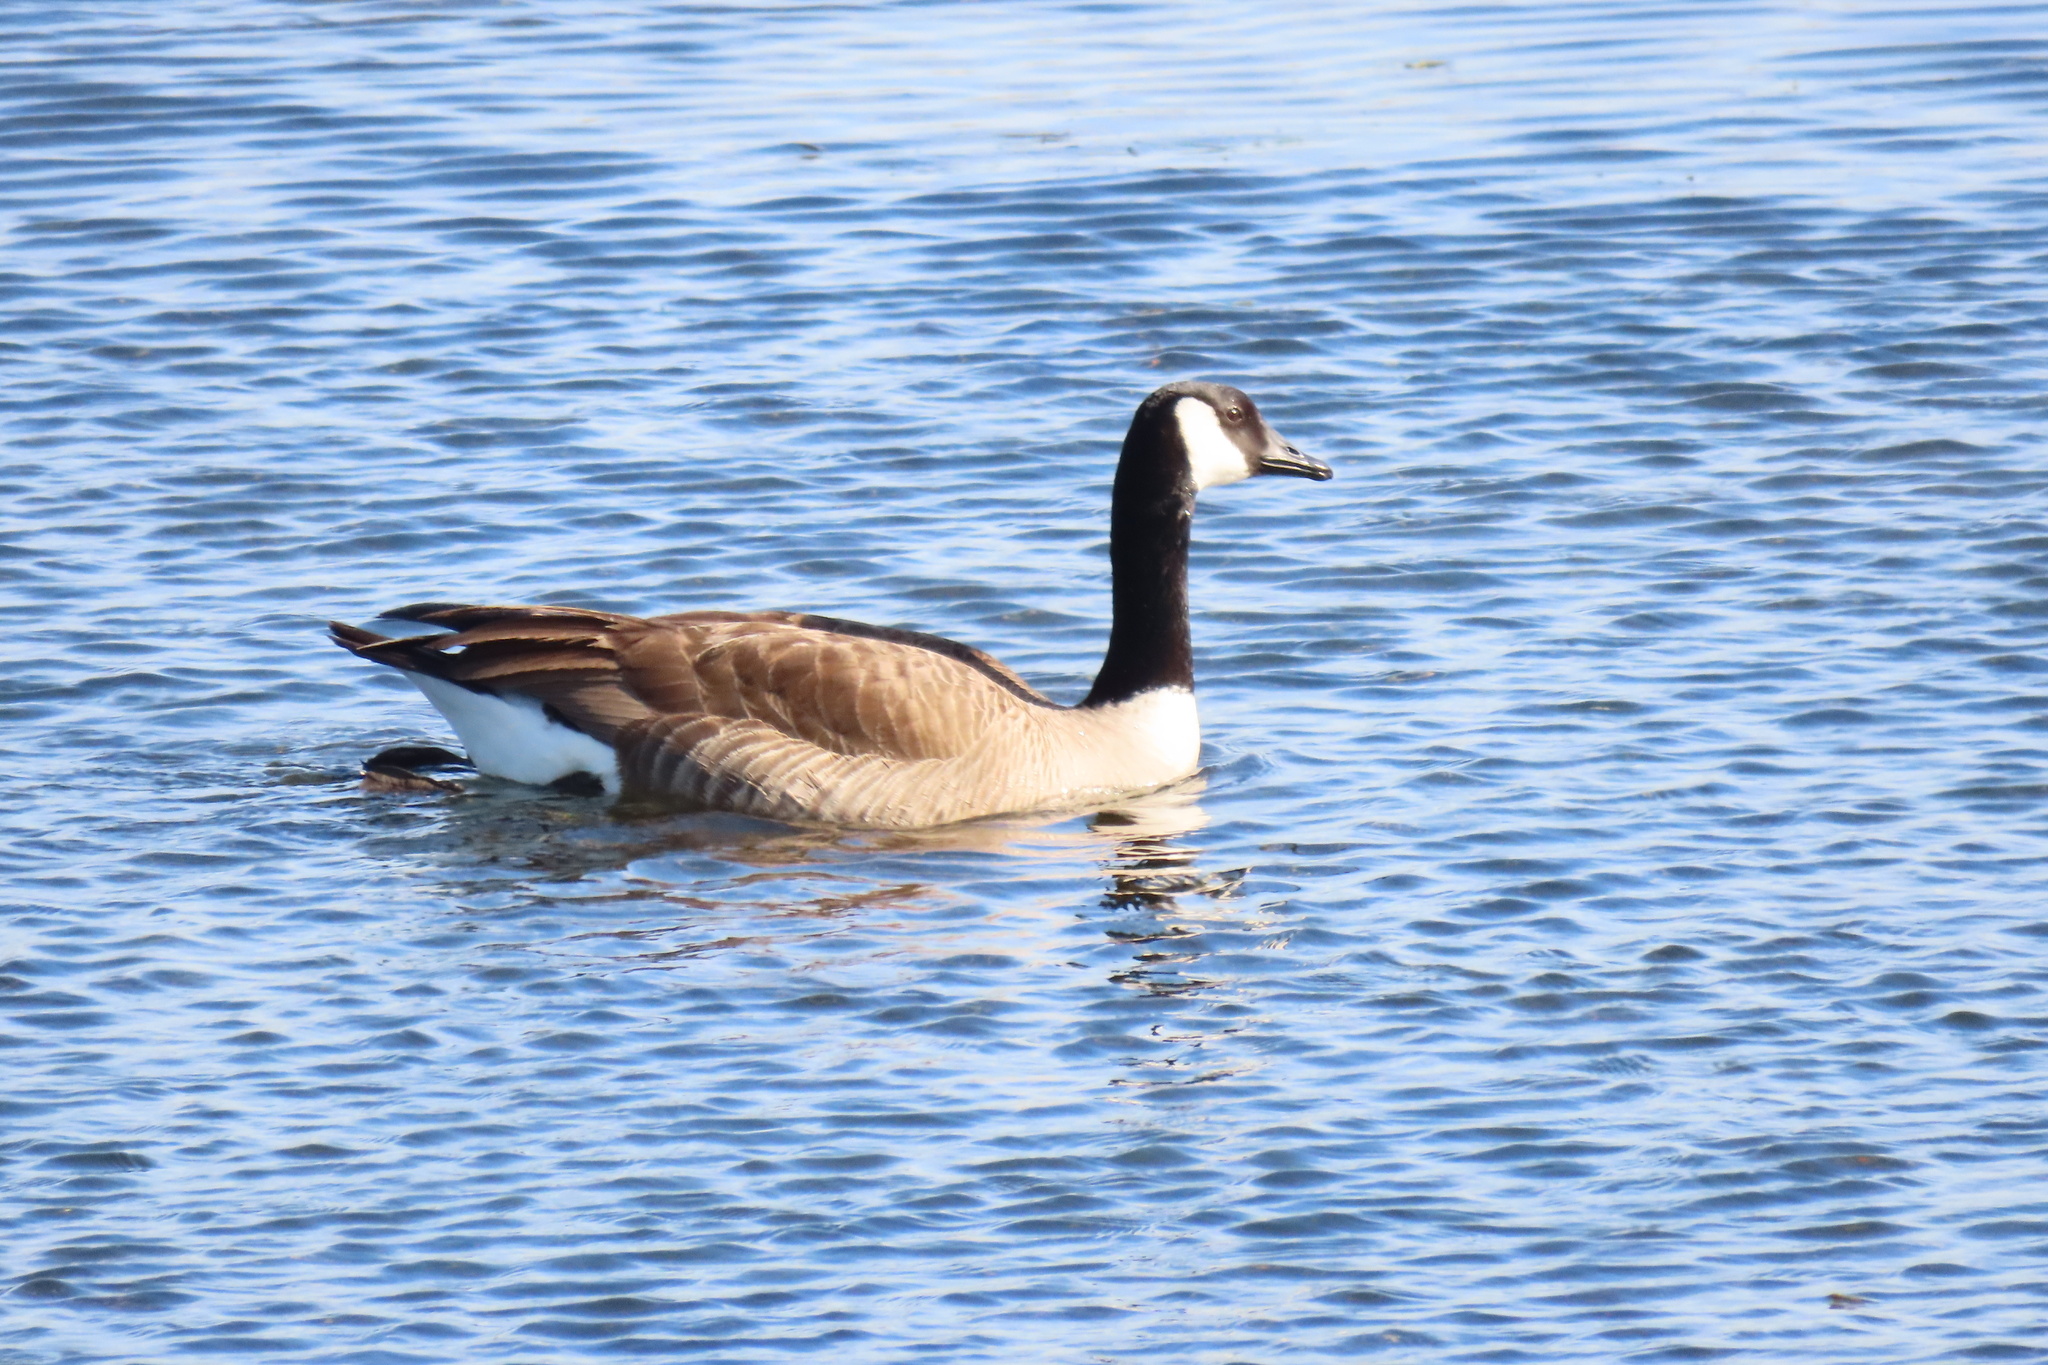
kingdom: Animalia
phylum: Chordata
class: Aves
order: Anseriformes
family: Anatidae
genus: Branta
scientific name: Branta canadensis
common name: Canada goose
